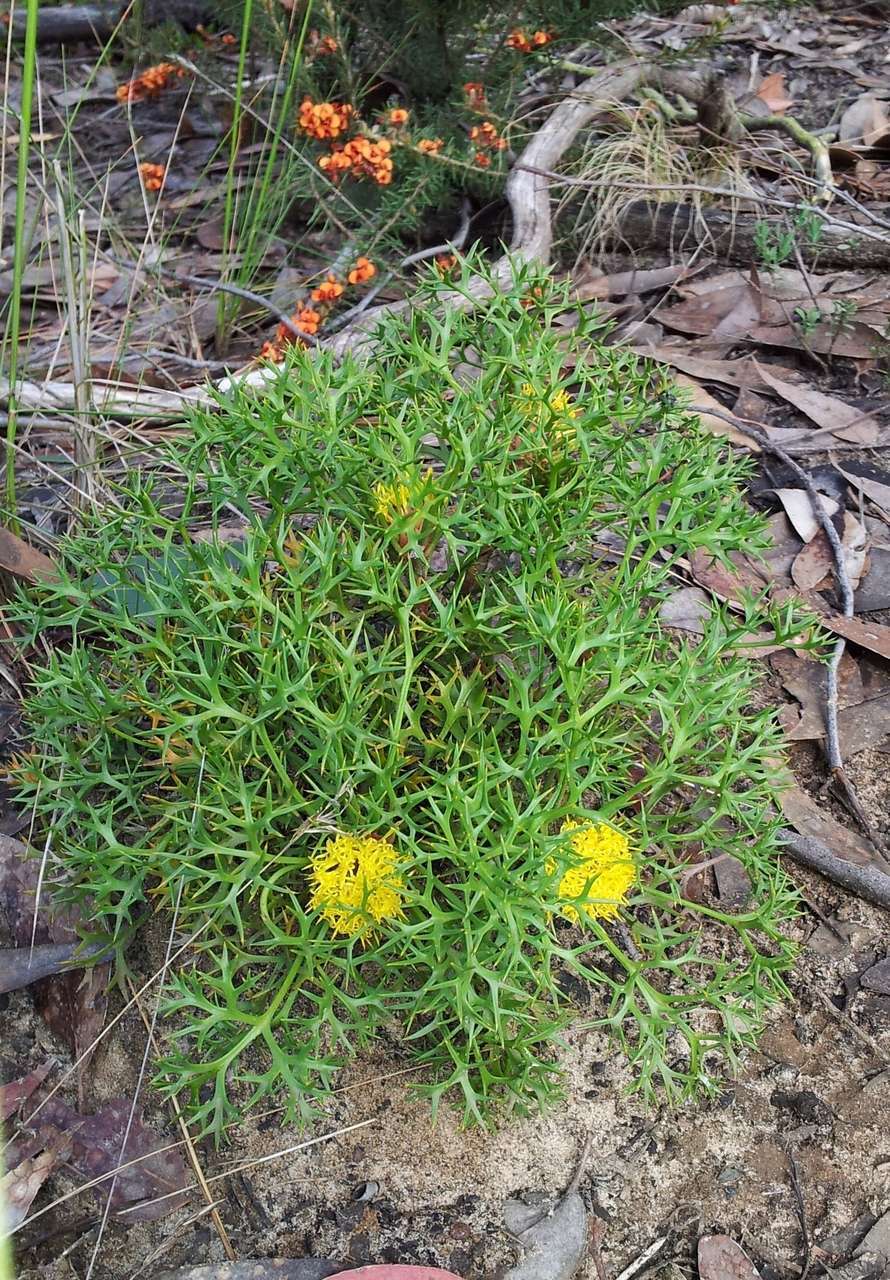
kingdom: Plantae
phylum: Tracheophyta
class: Magnoliopsida
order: Proteales
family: Proteaceae
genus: Isopogon
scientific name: Isopogon ceratophyllus
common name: Horny cone-bush
